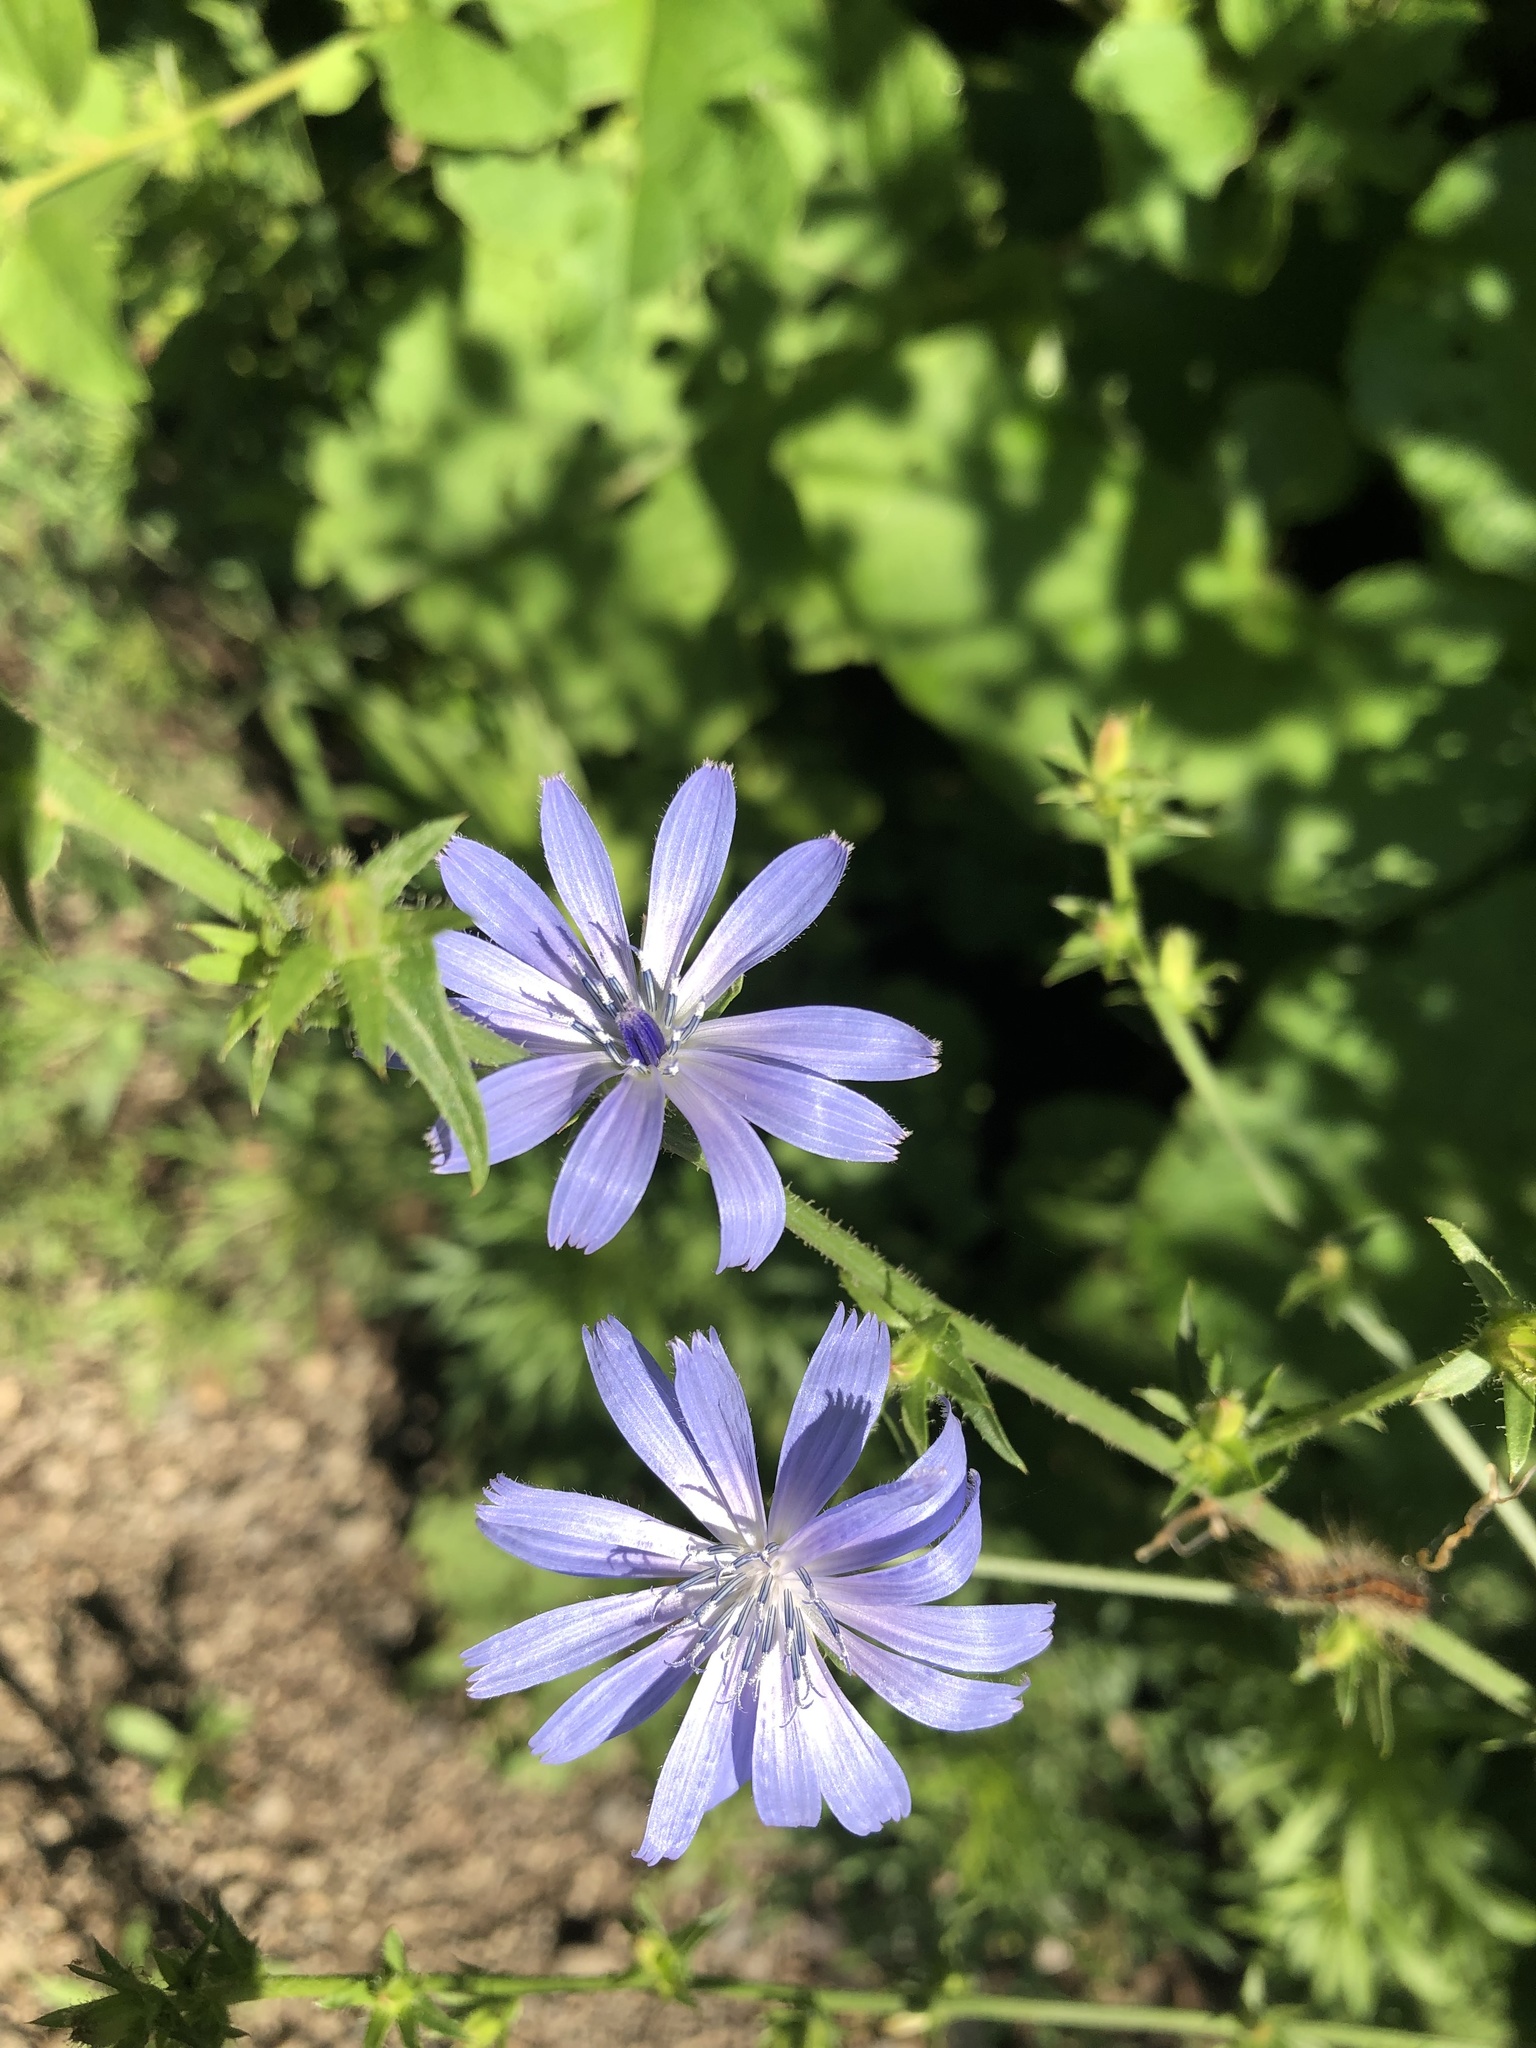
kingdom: Plantae
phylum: Tracheophyta
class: Magnoliopsida
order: Asterales
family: Asteraceae
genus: Cichorium
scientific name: Cichorium intybus
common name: Chicory
